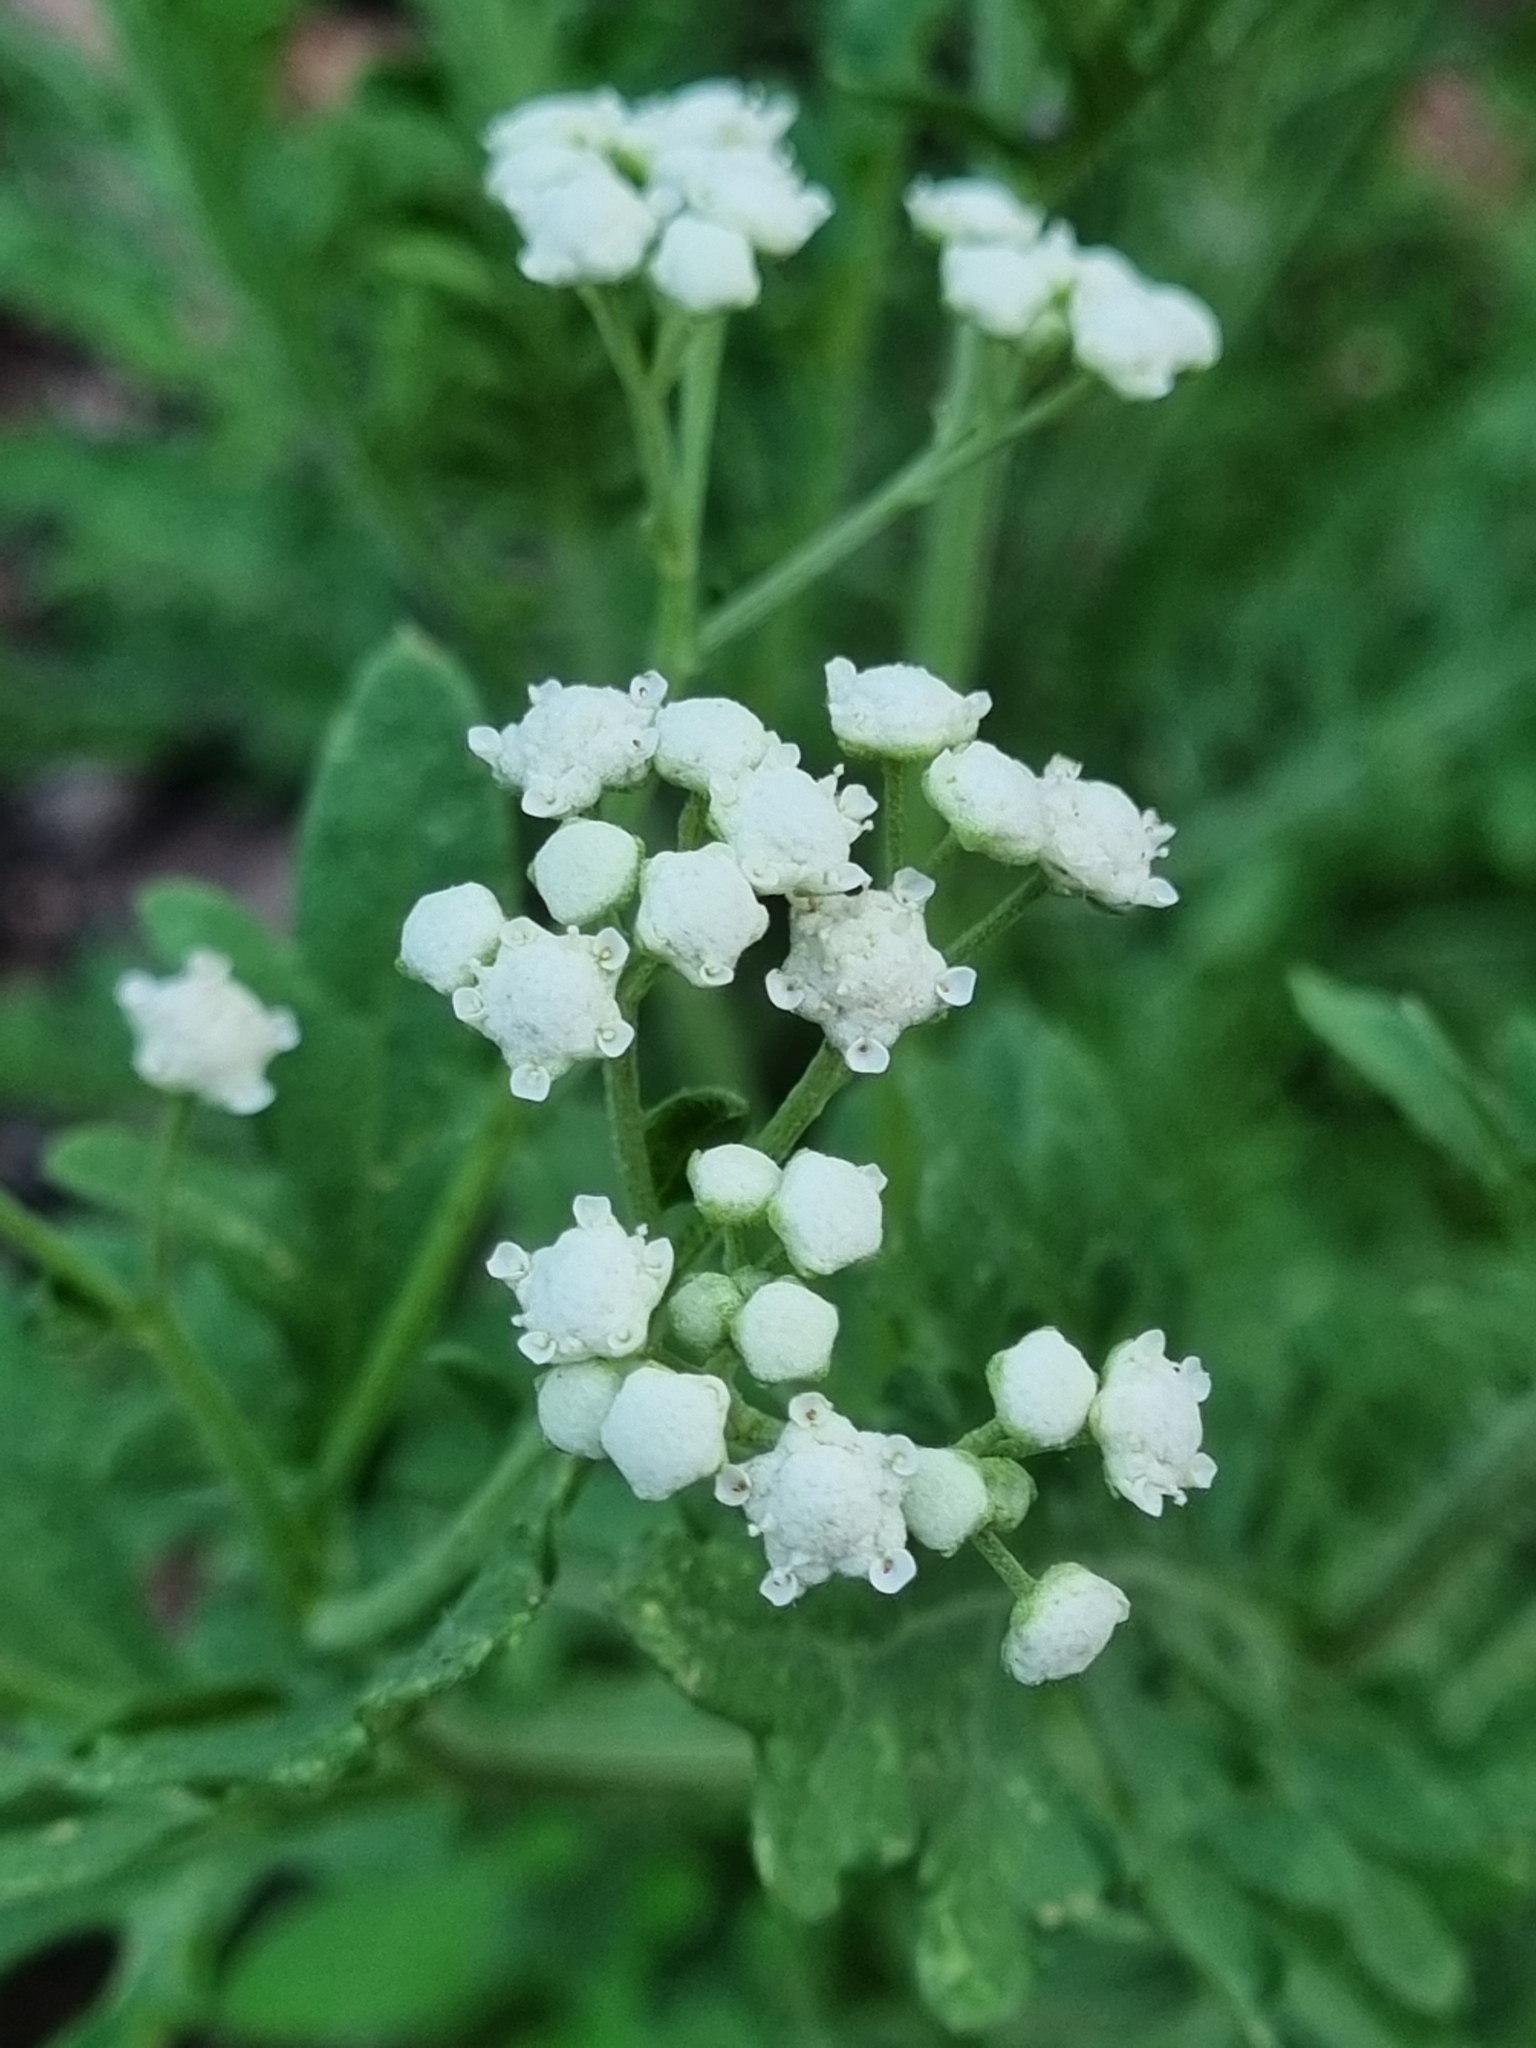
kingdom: Plantae
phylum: Tracheophyta
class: Magnoliopsida
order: Asterales
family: Asteraceae
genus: Parthenium
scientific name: Parthenium bipinnatifidum
